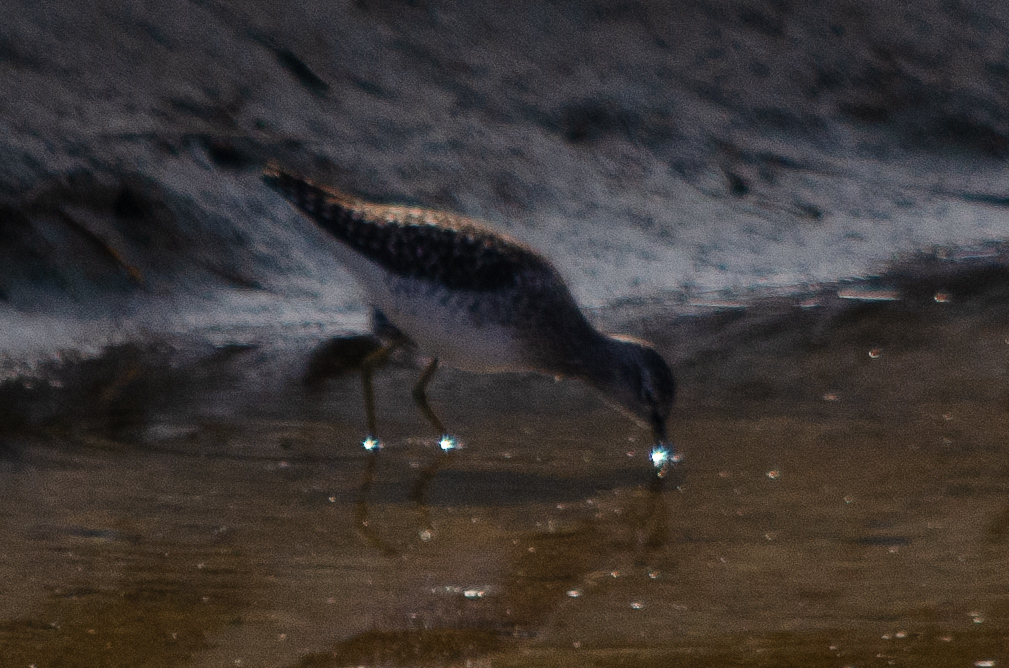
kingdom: Animalia
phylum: Chordata
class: Aves
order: Charadriiformes
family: Scolopacidae
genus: Tringa
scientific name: Tringa glareola
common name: Wood sandpiper
